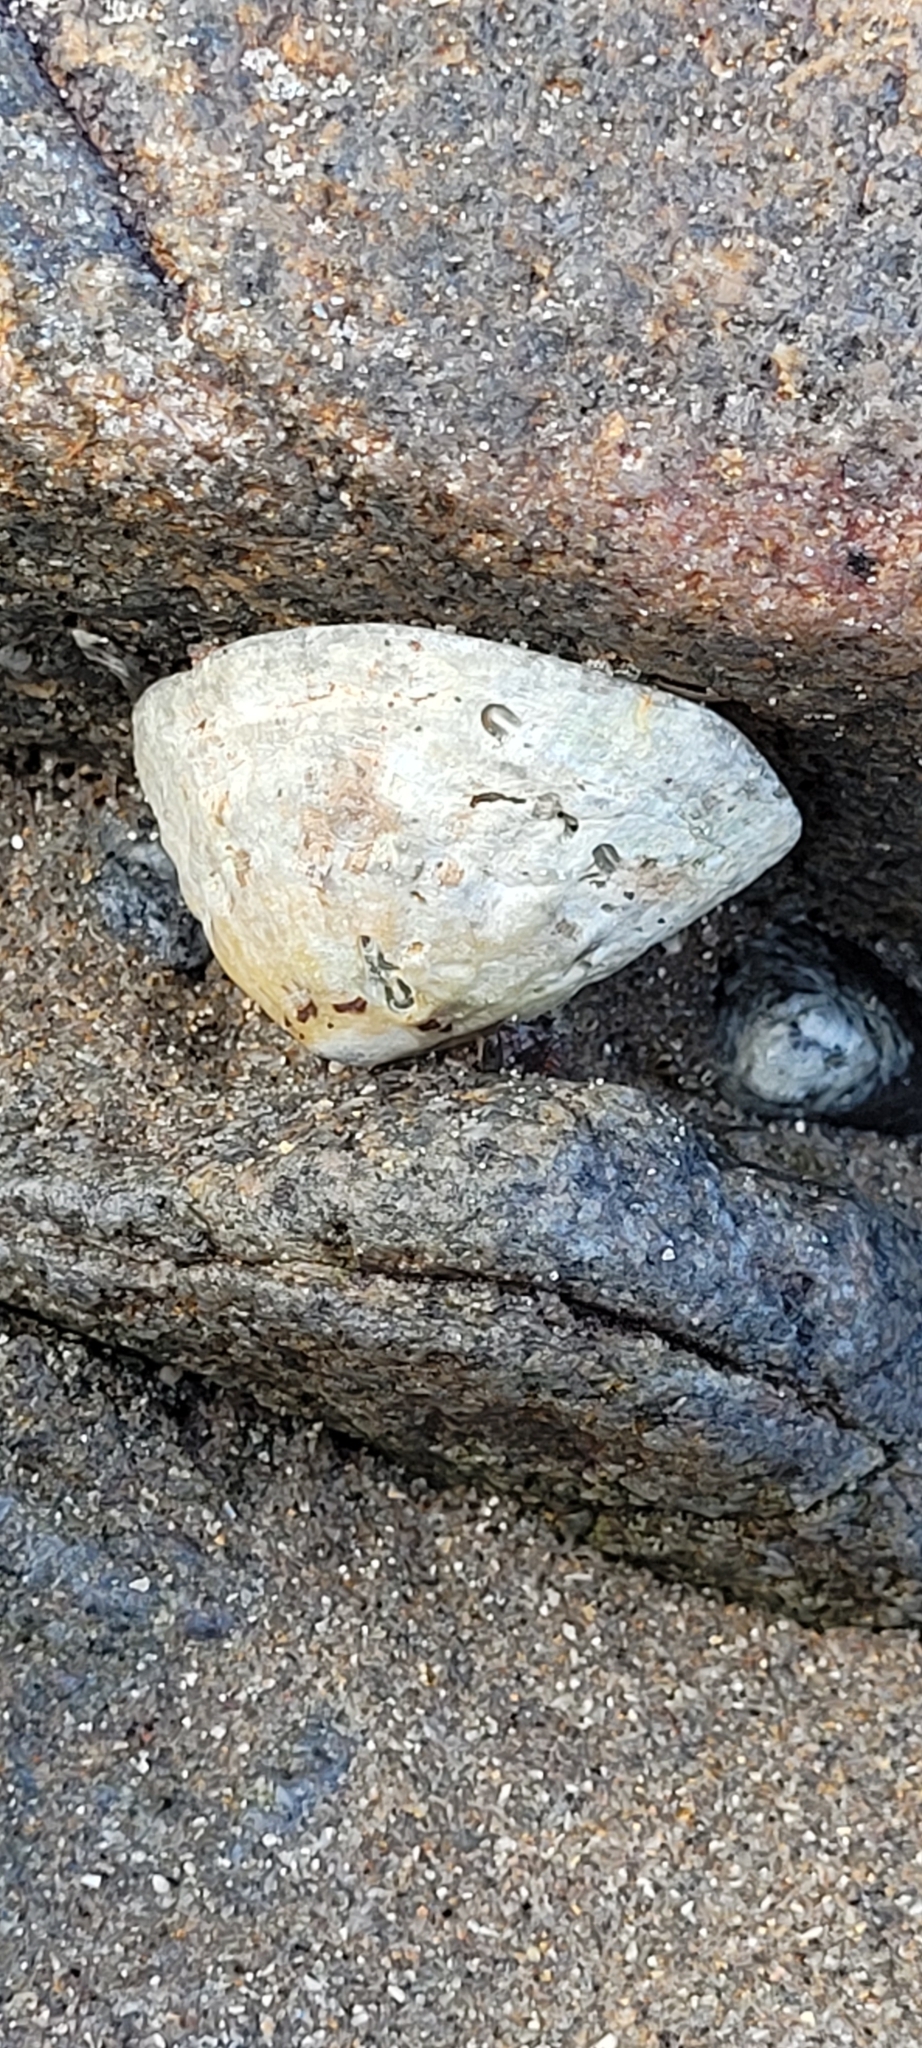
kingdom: Animalia
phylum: Mollusca
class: Gastropoda
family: Patellidae
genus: Patella
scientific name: Patella vulgata
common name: Common limpet
